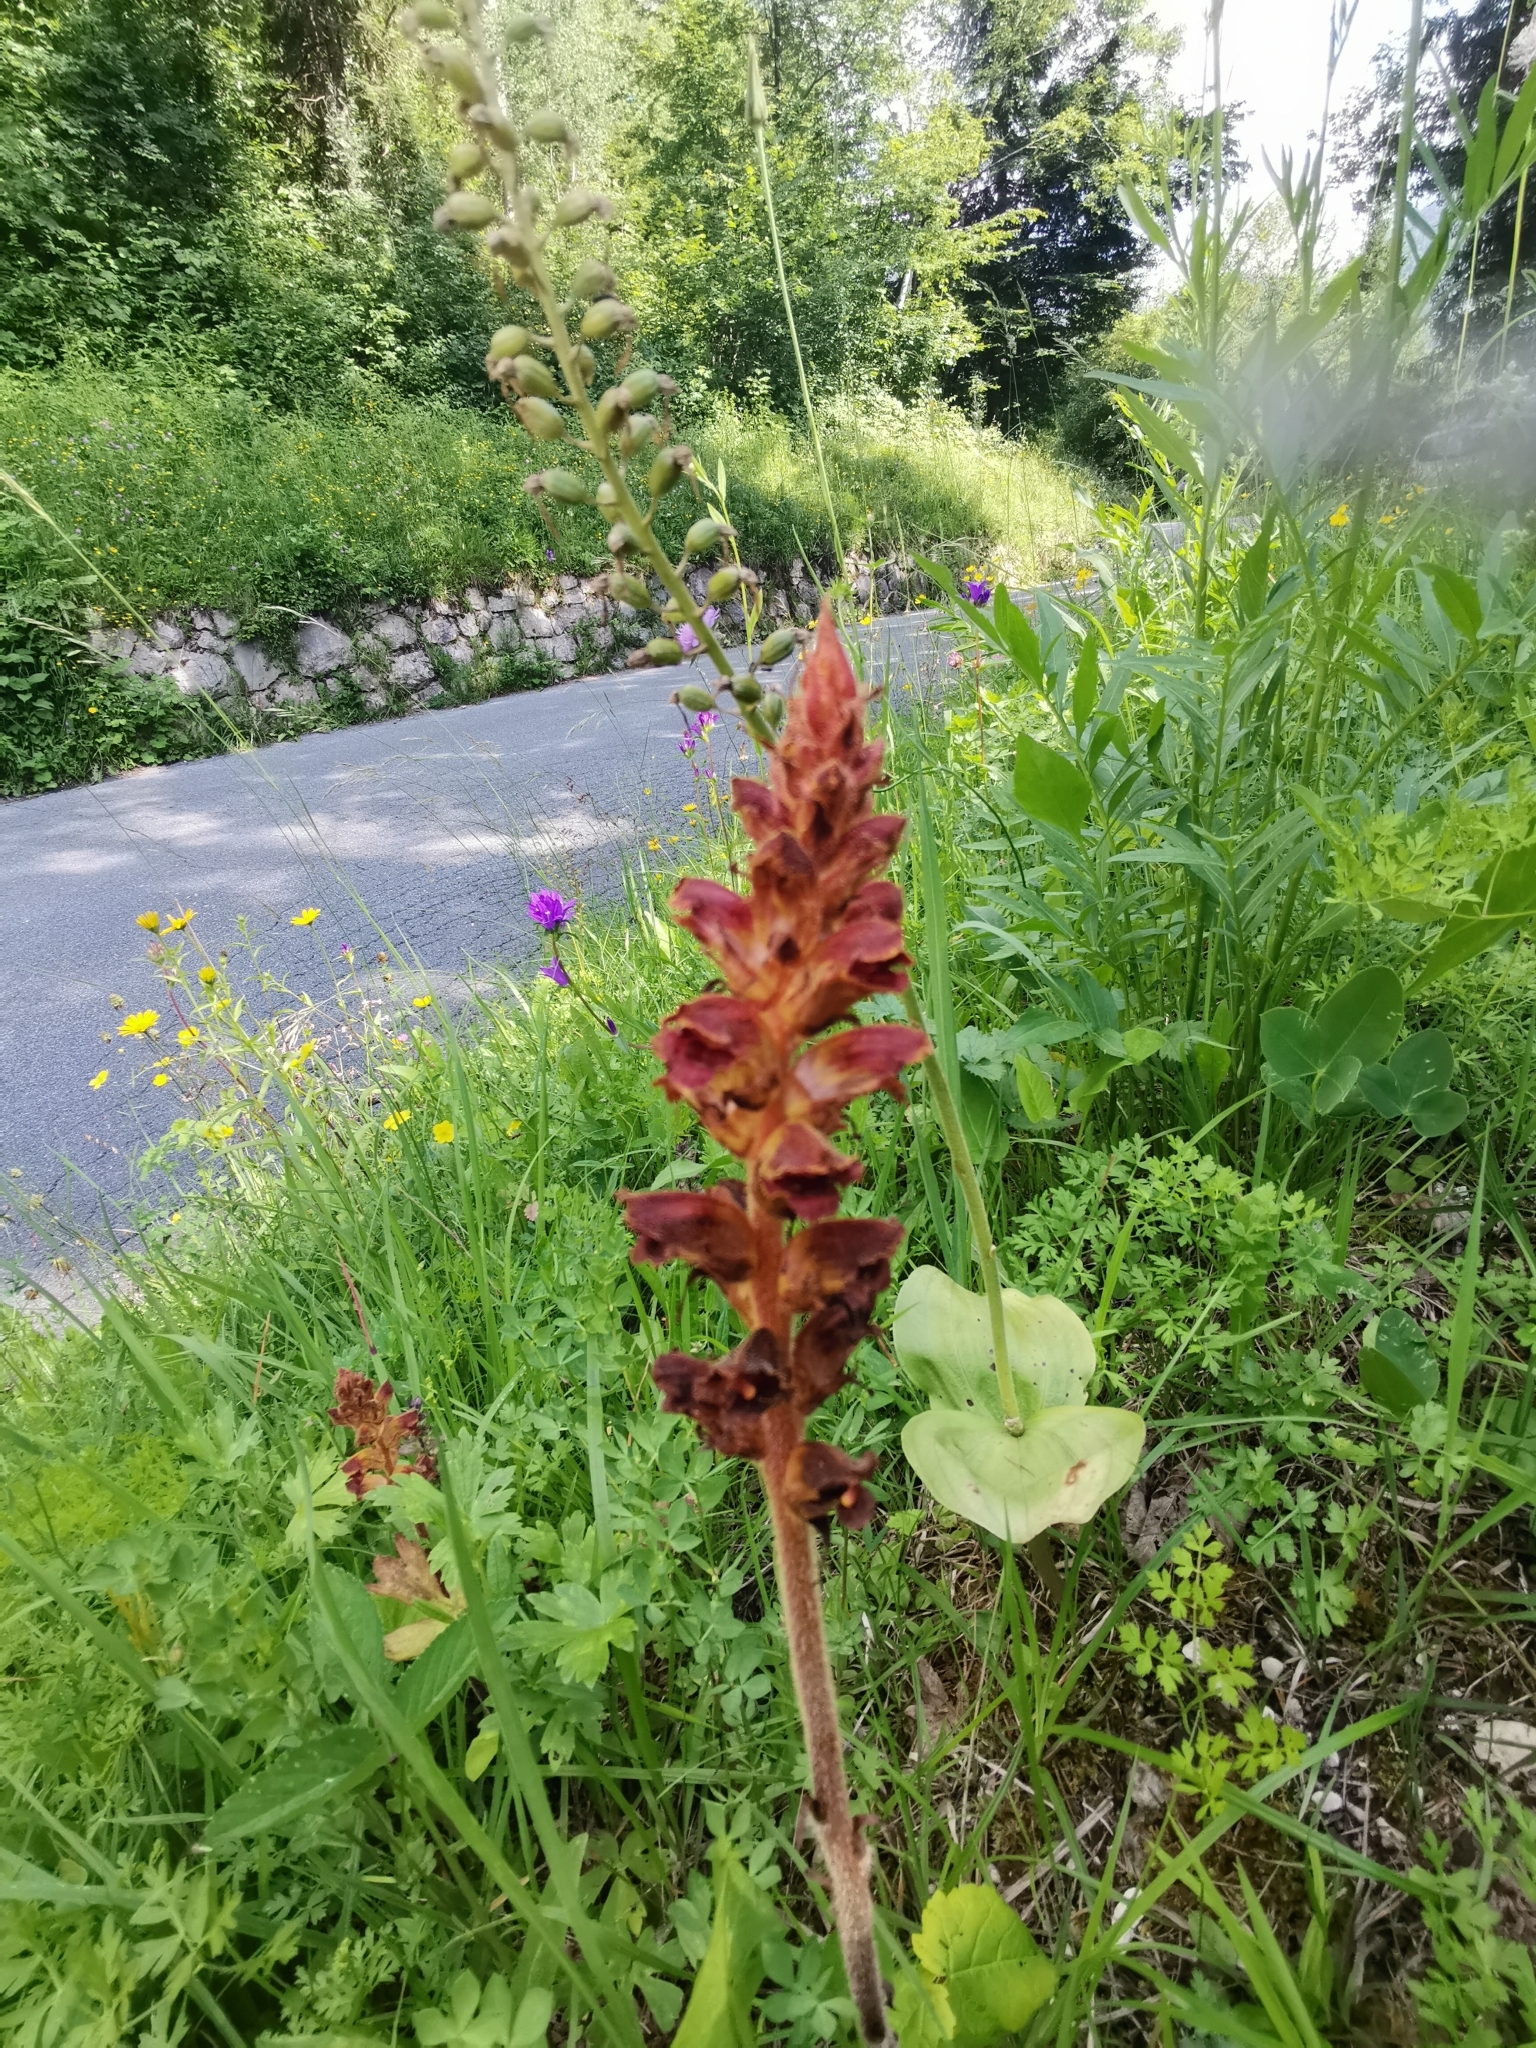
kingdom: Plantae
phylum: Tracheophyta
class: Magnoliopsida
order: Lamiales
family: Orobanchaceae
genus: Orobanche
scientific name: Orobanche gracilis
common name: Slender broomrape
